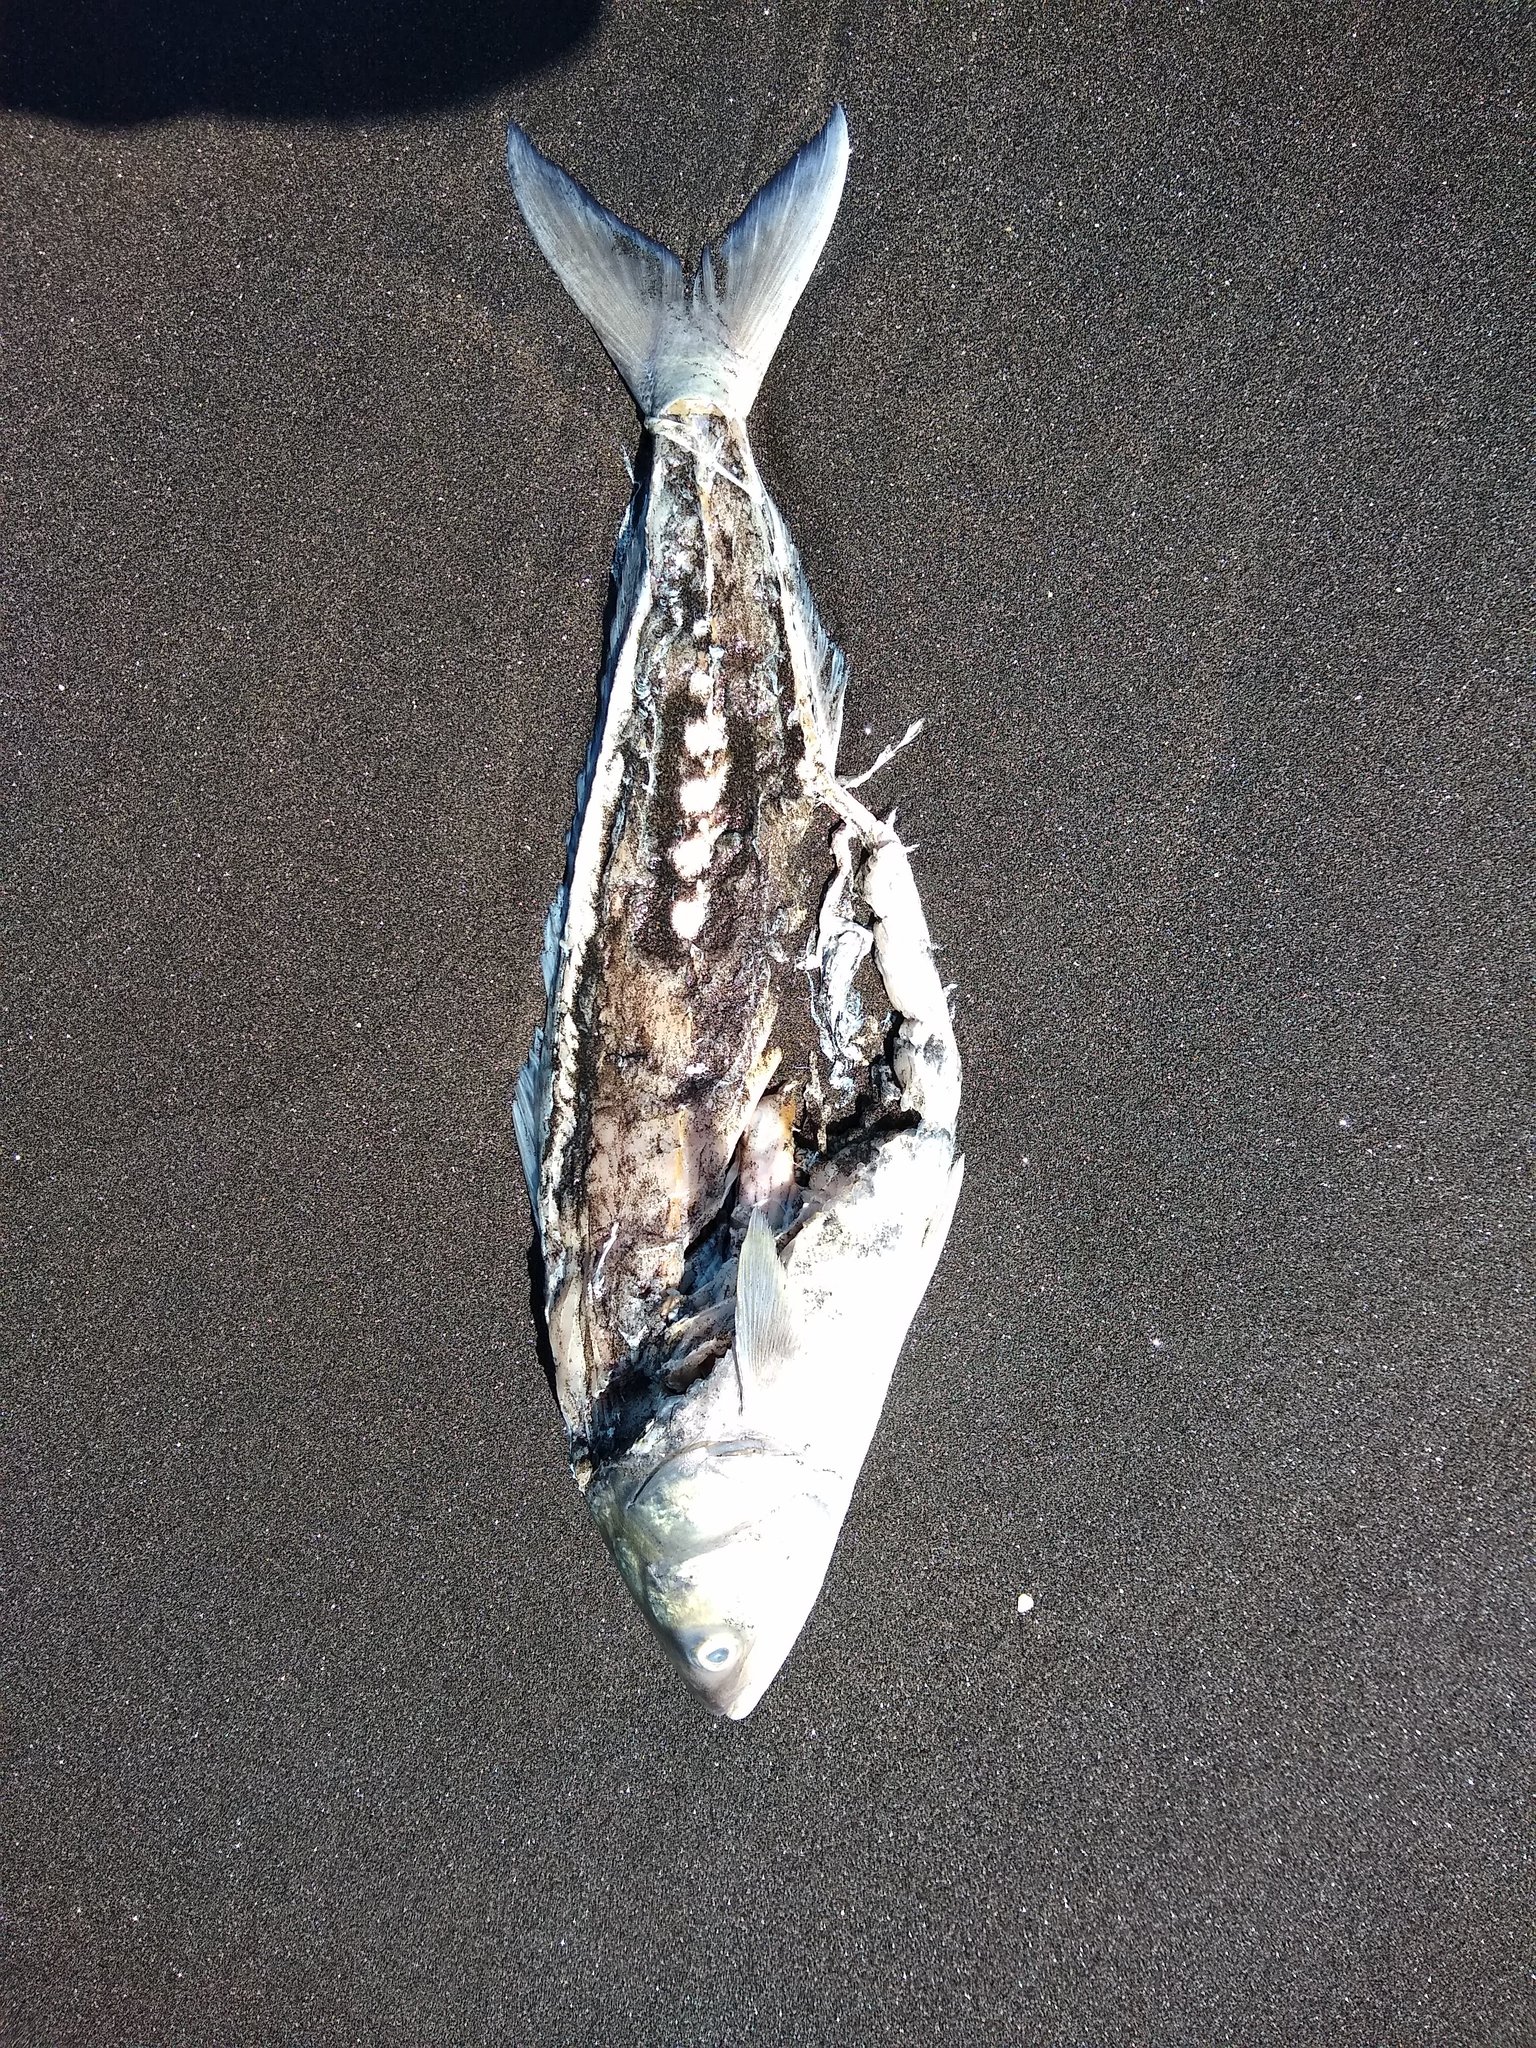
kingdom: Animalia
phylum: Chordata
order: Perciformes
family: Arripidae
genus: Arripis
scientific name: Arripis trutta
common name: Kahawai
